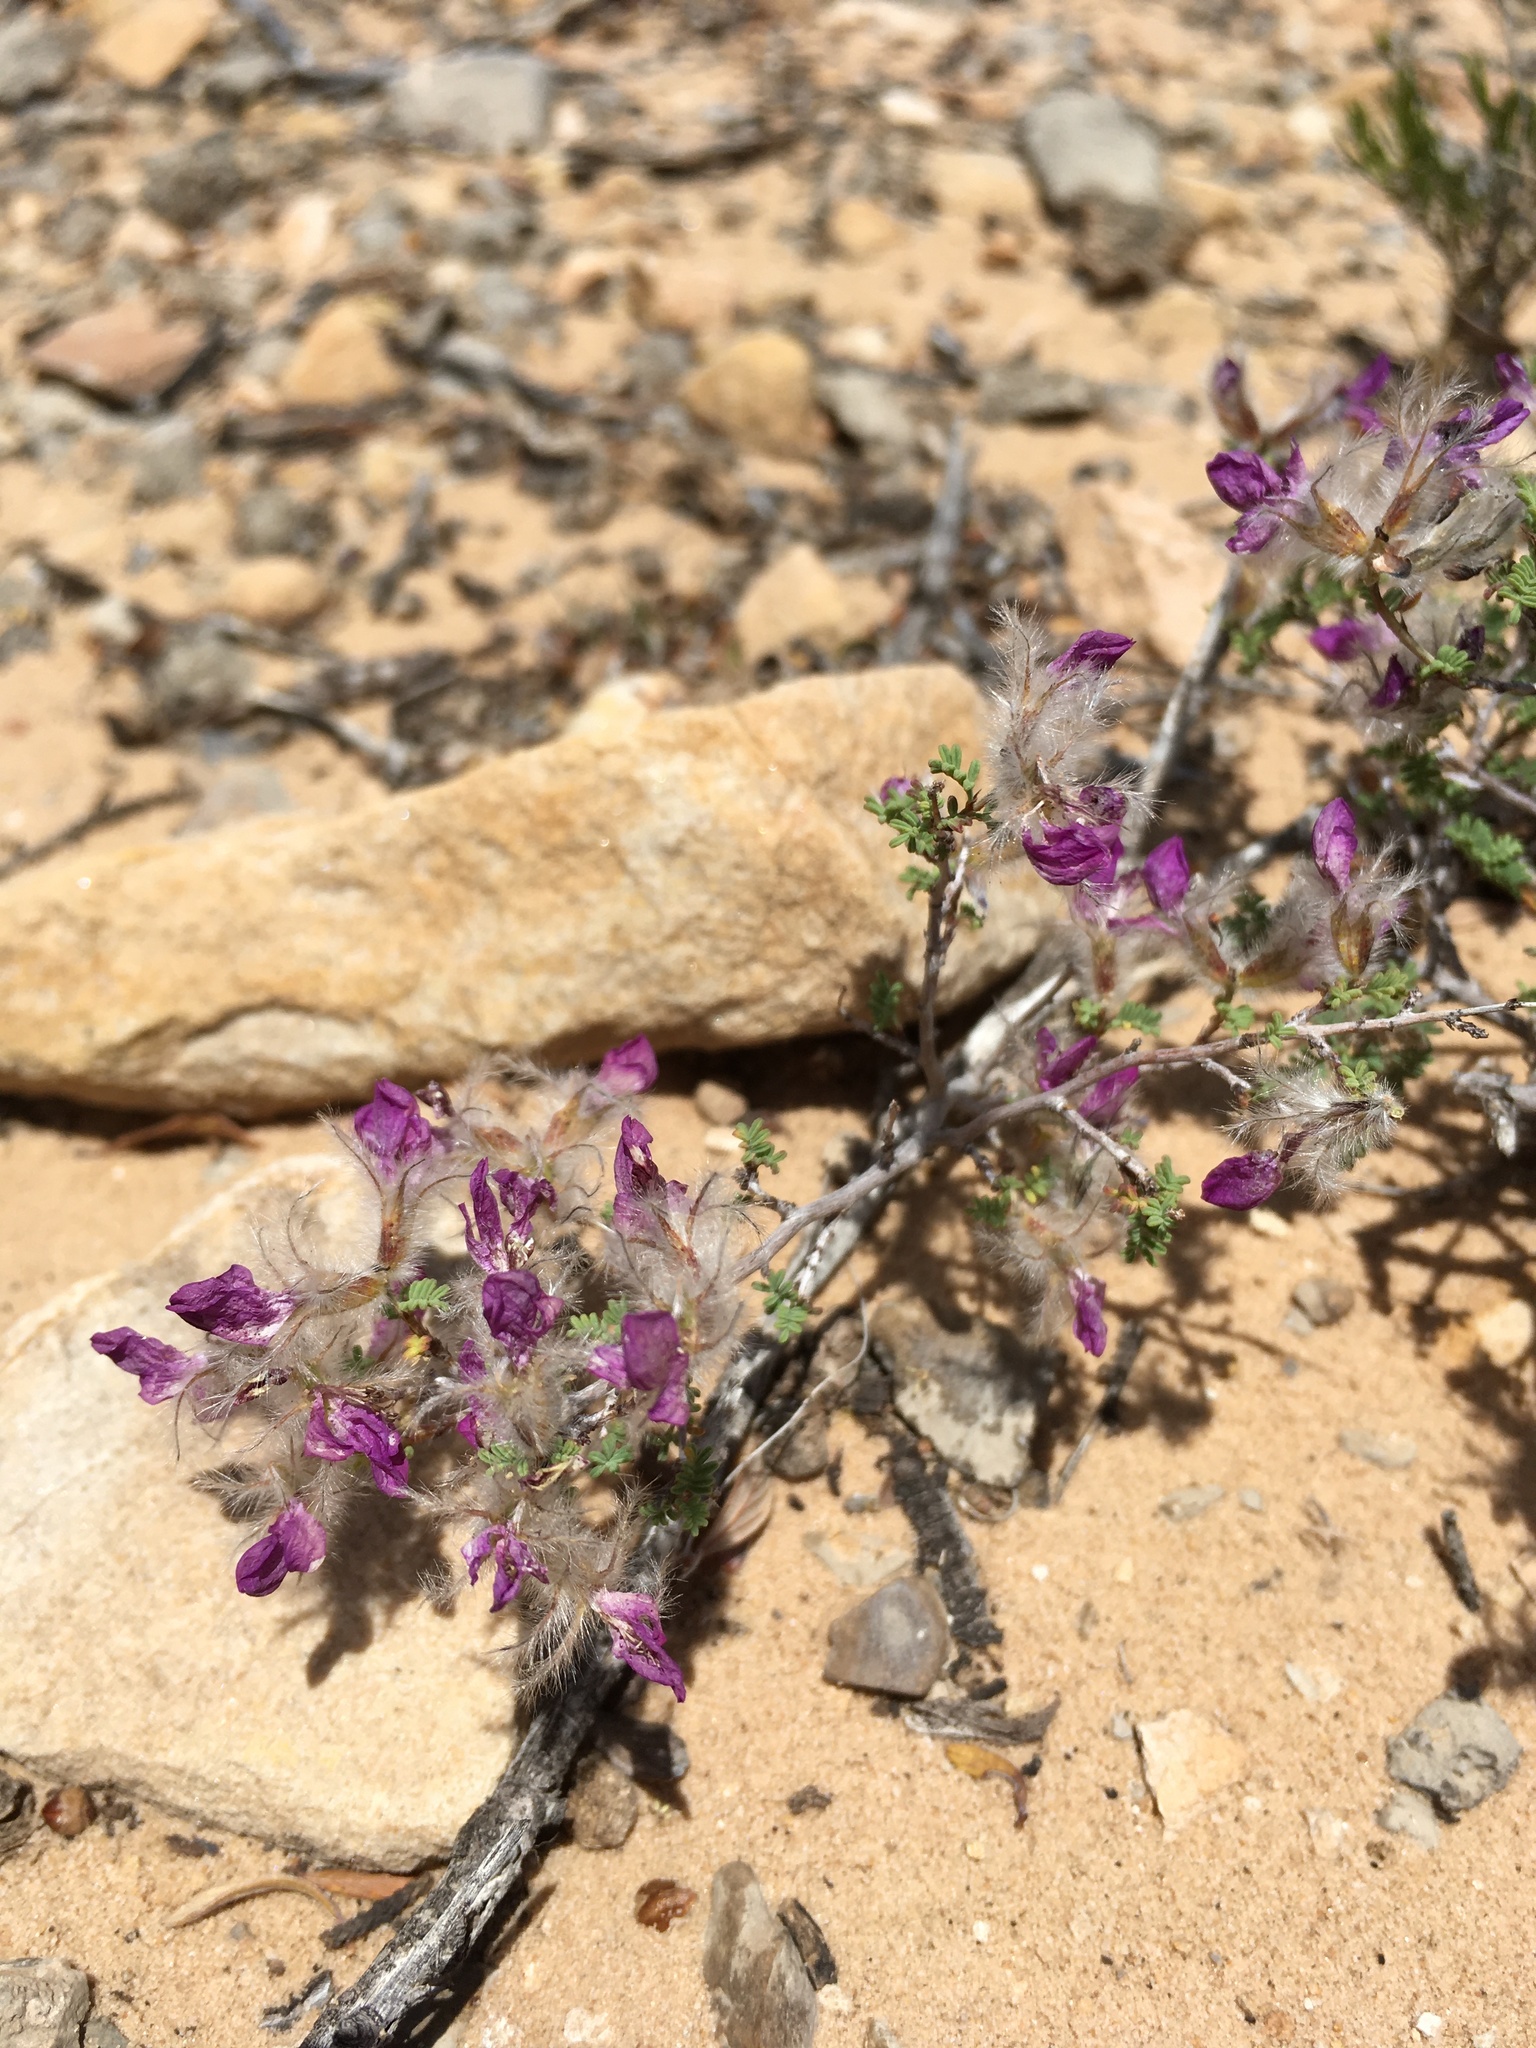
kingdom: Plantae
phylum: Tracheophyta
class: Magnoliopsida
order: Fabales
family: Fabaceae
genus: Dalea
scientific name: Dalea formosa
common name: Feather-plume dalea
